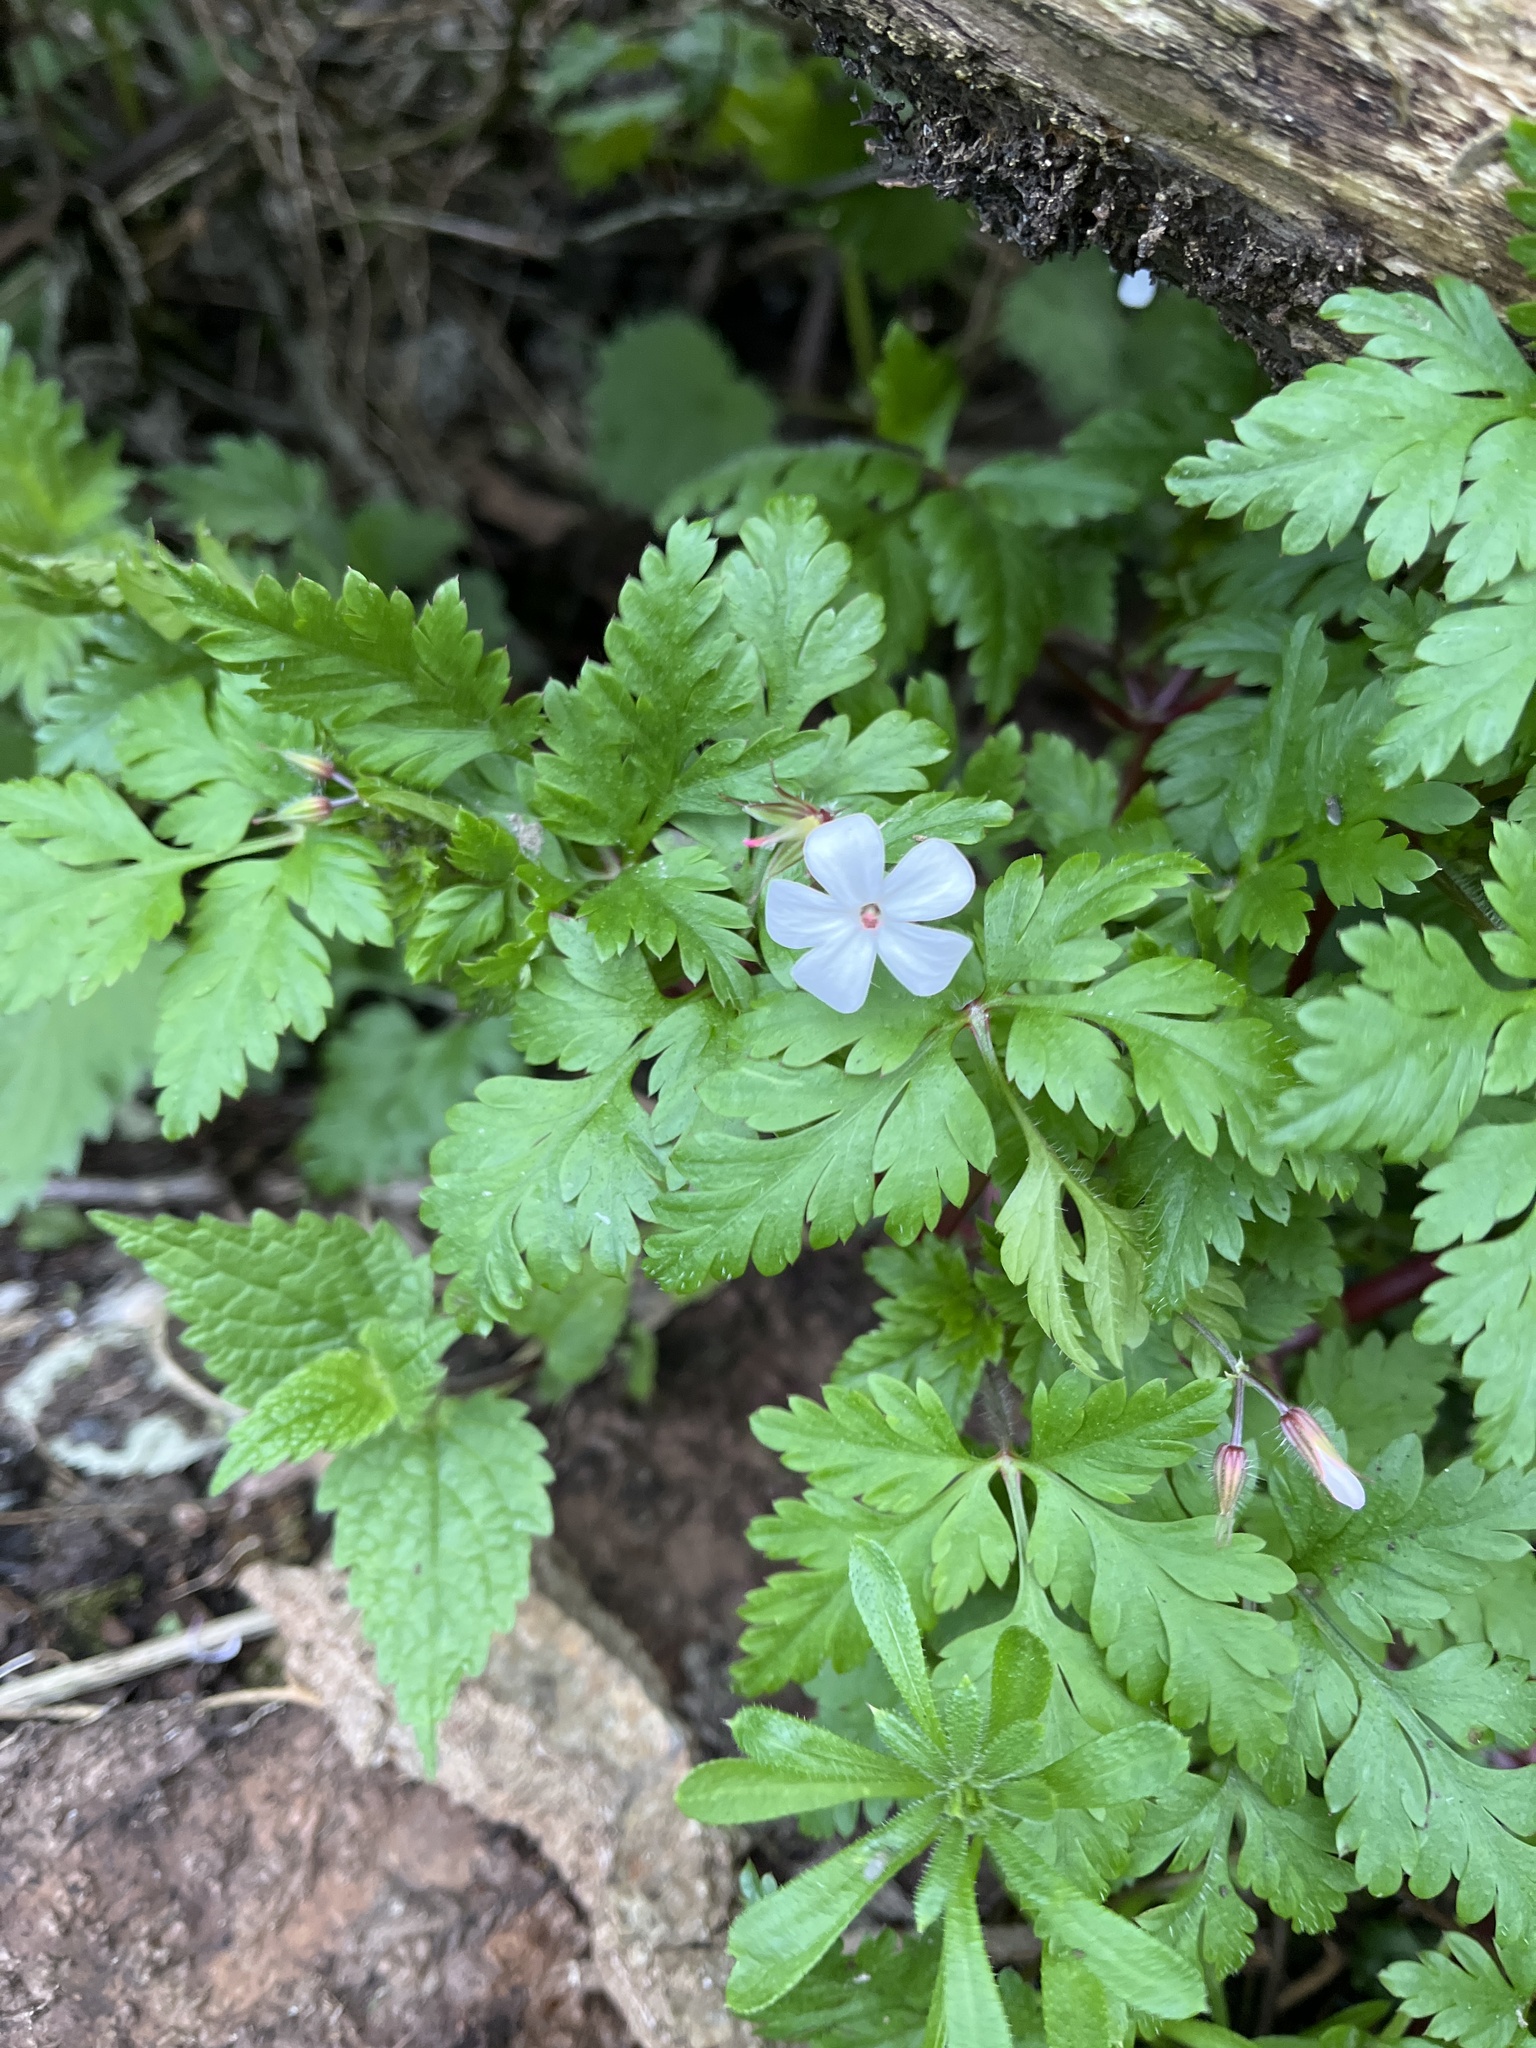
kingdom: Plantae
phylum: Tracheophyta
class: Magnoliopsida
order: Geraniales
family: Geraniaceae
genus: Geranium
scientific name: Geranium robertianum
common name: Herb-robert
